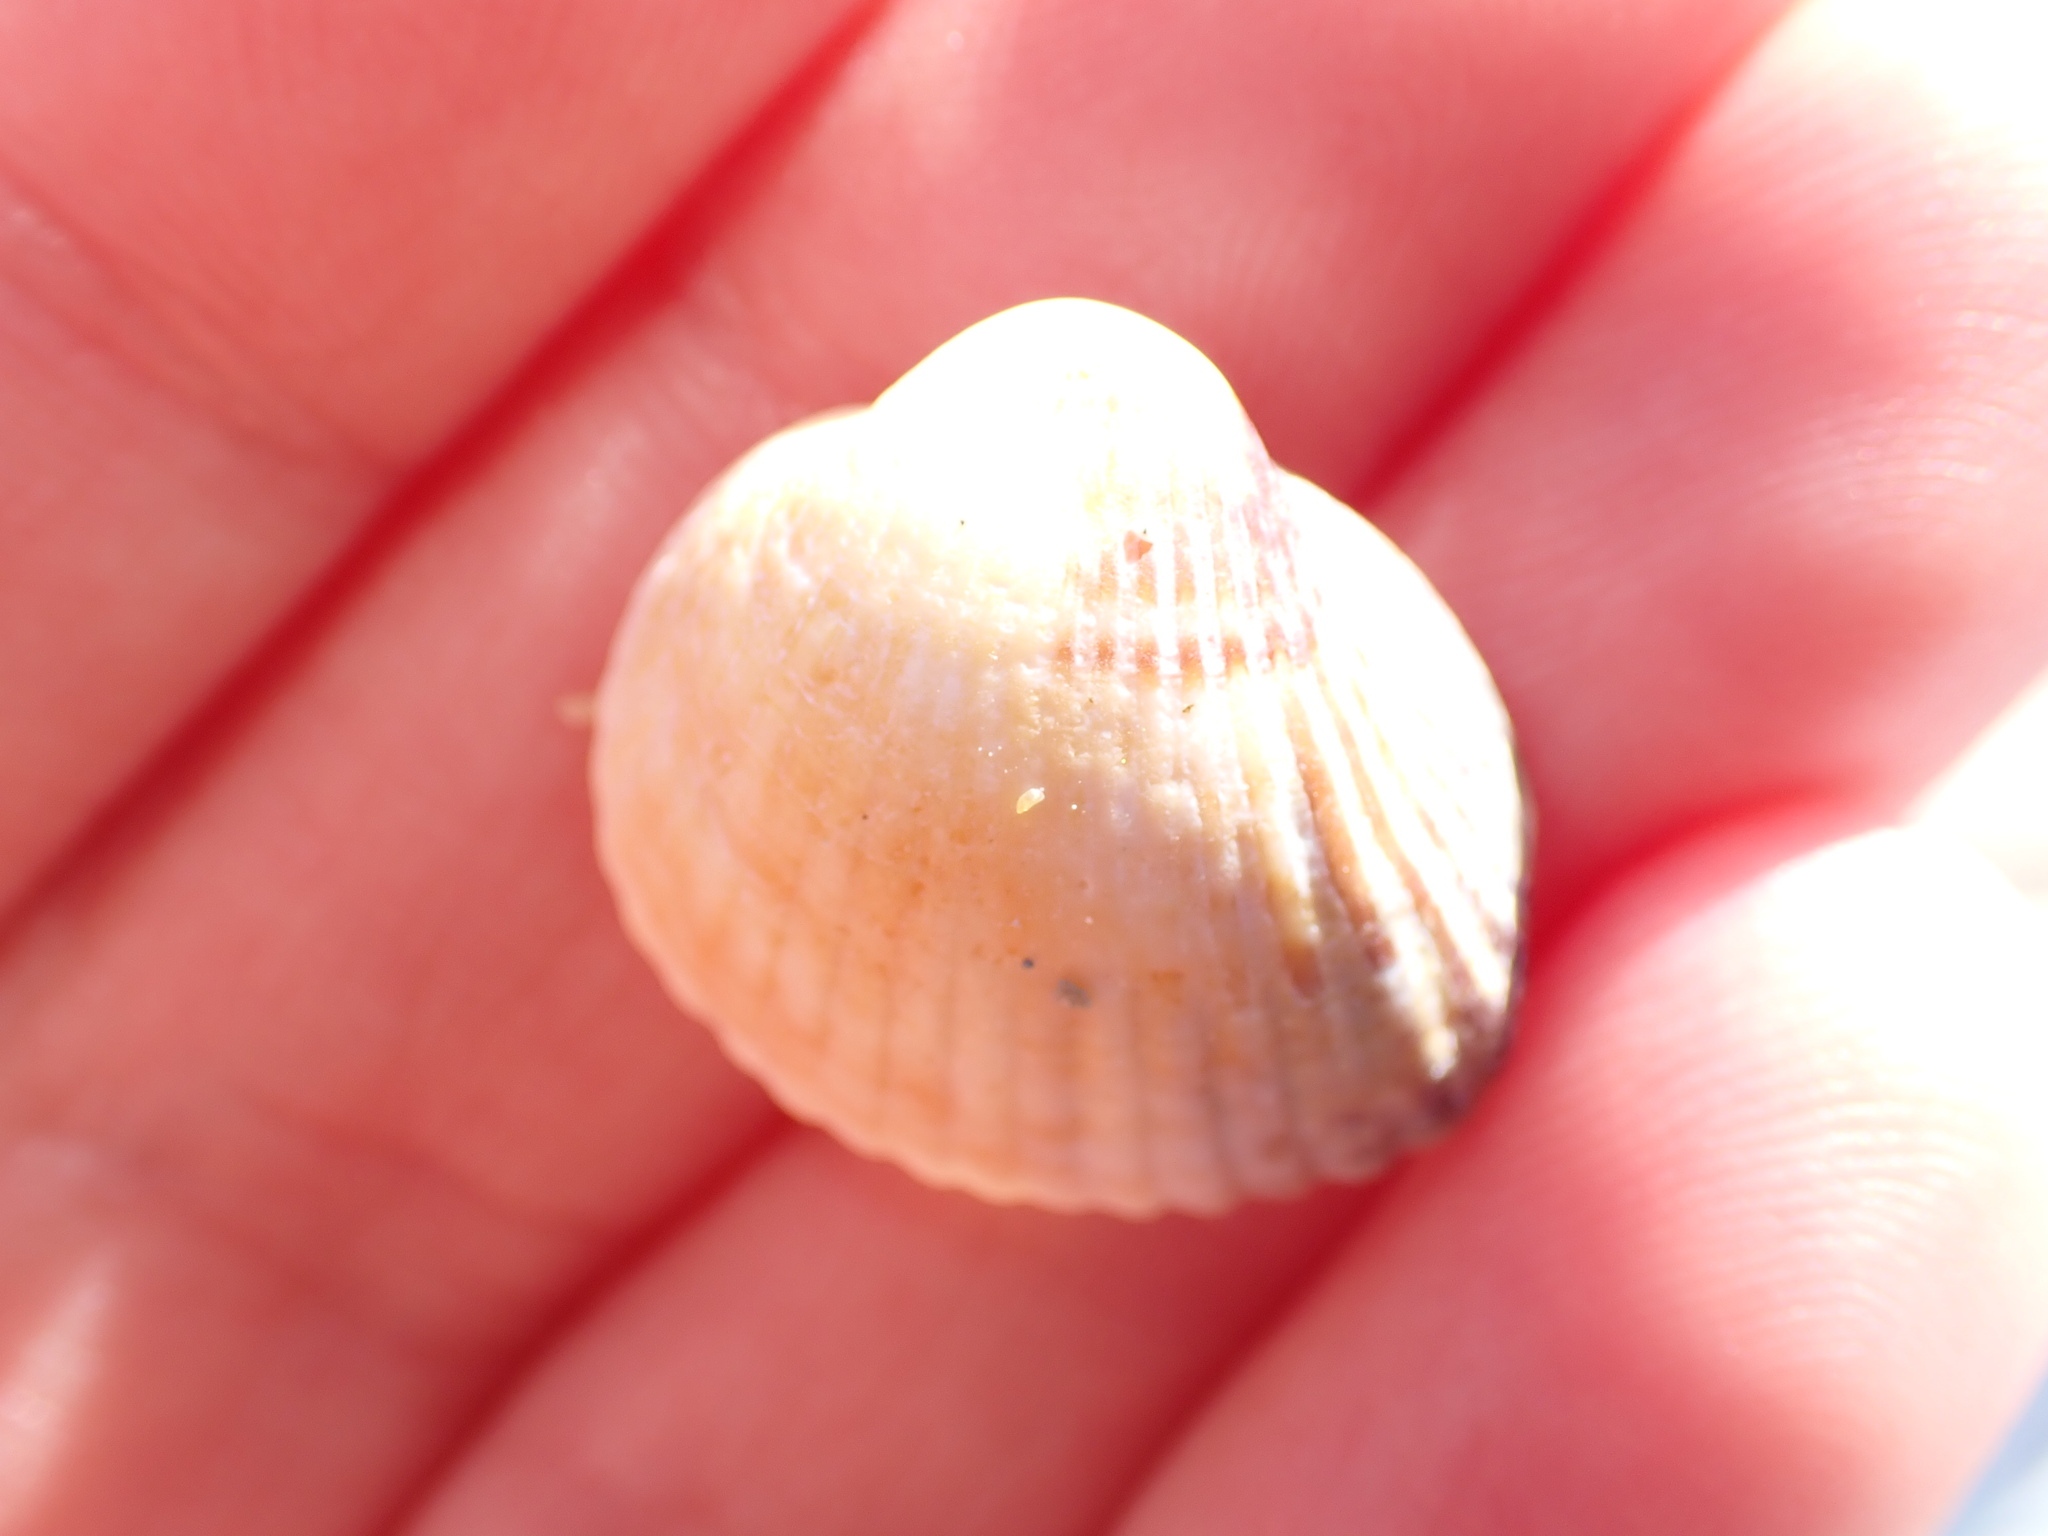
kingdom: Animalia
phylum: Mollusca
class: Bivalvia
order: Cardiida
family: Cardiidae
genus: Cerastoderma
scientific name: Cerastoderma glaucum
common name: Lagoon cockle
